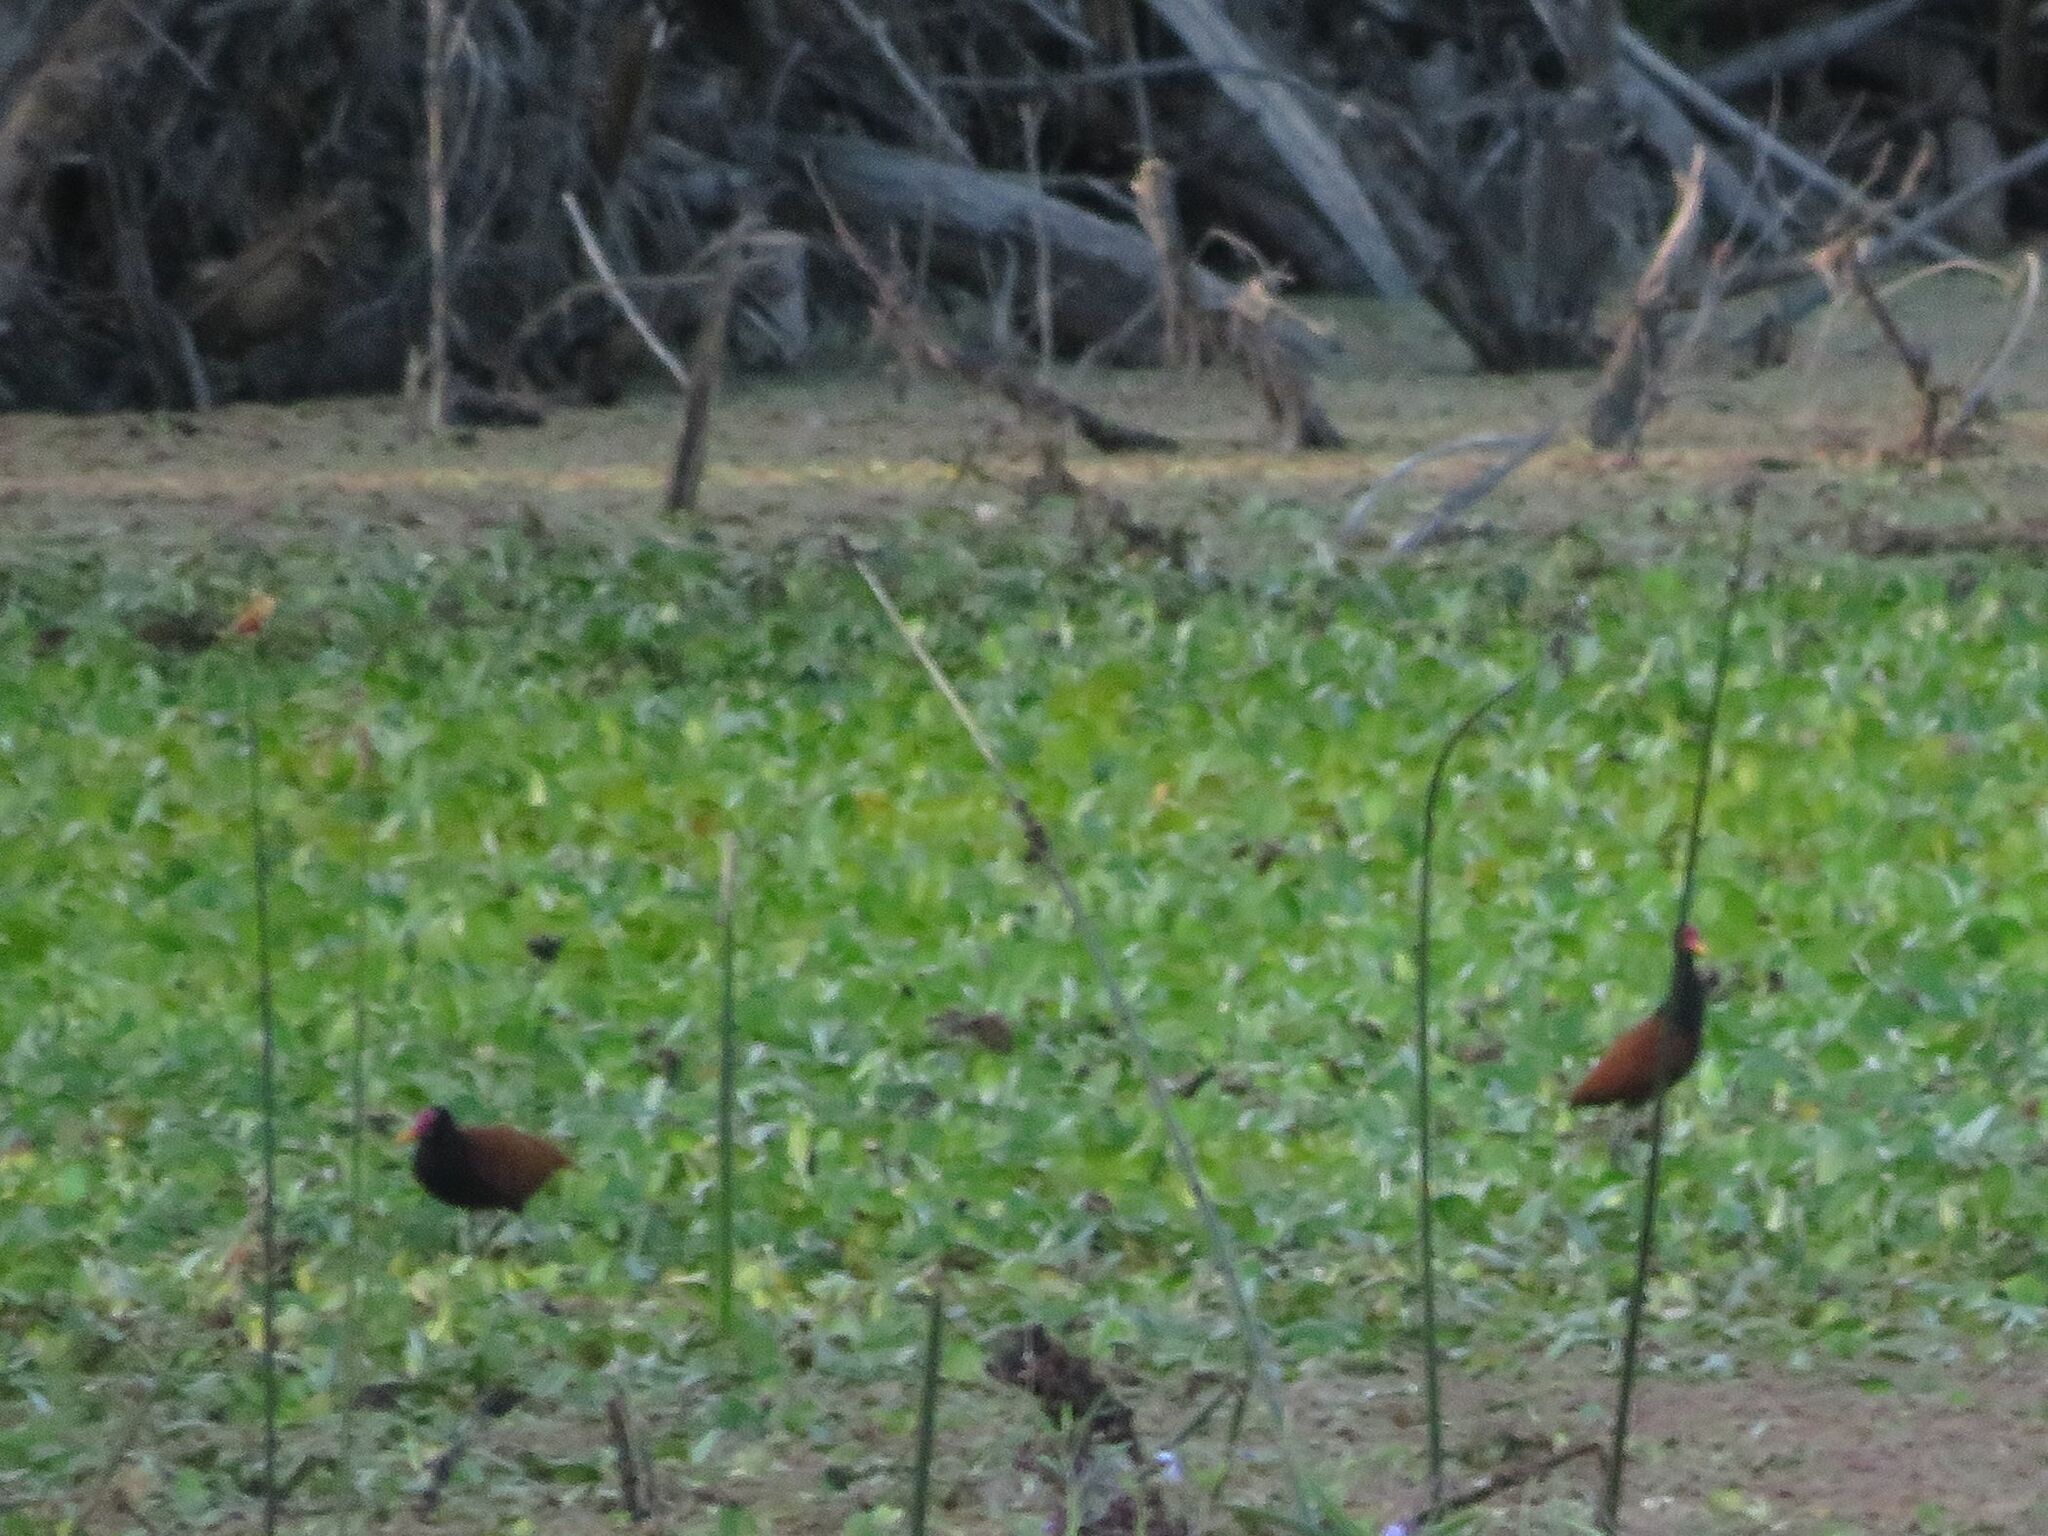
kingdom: Animalia
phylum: Chordata
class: Aves
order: Charadriiformes
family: Jacanidae
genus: Jacana
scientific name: Jacana jacana
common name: Wattled jacana
